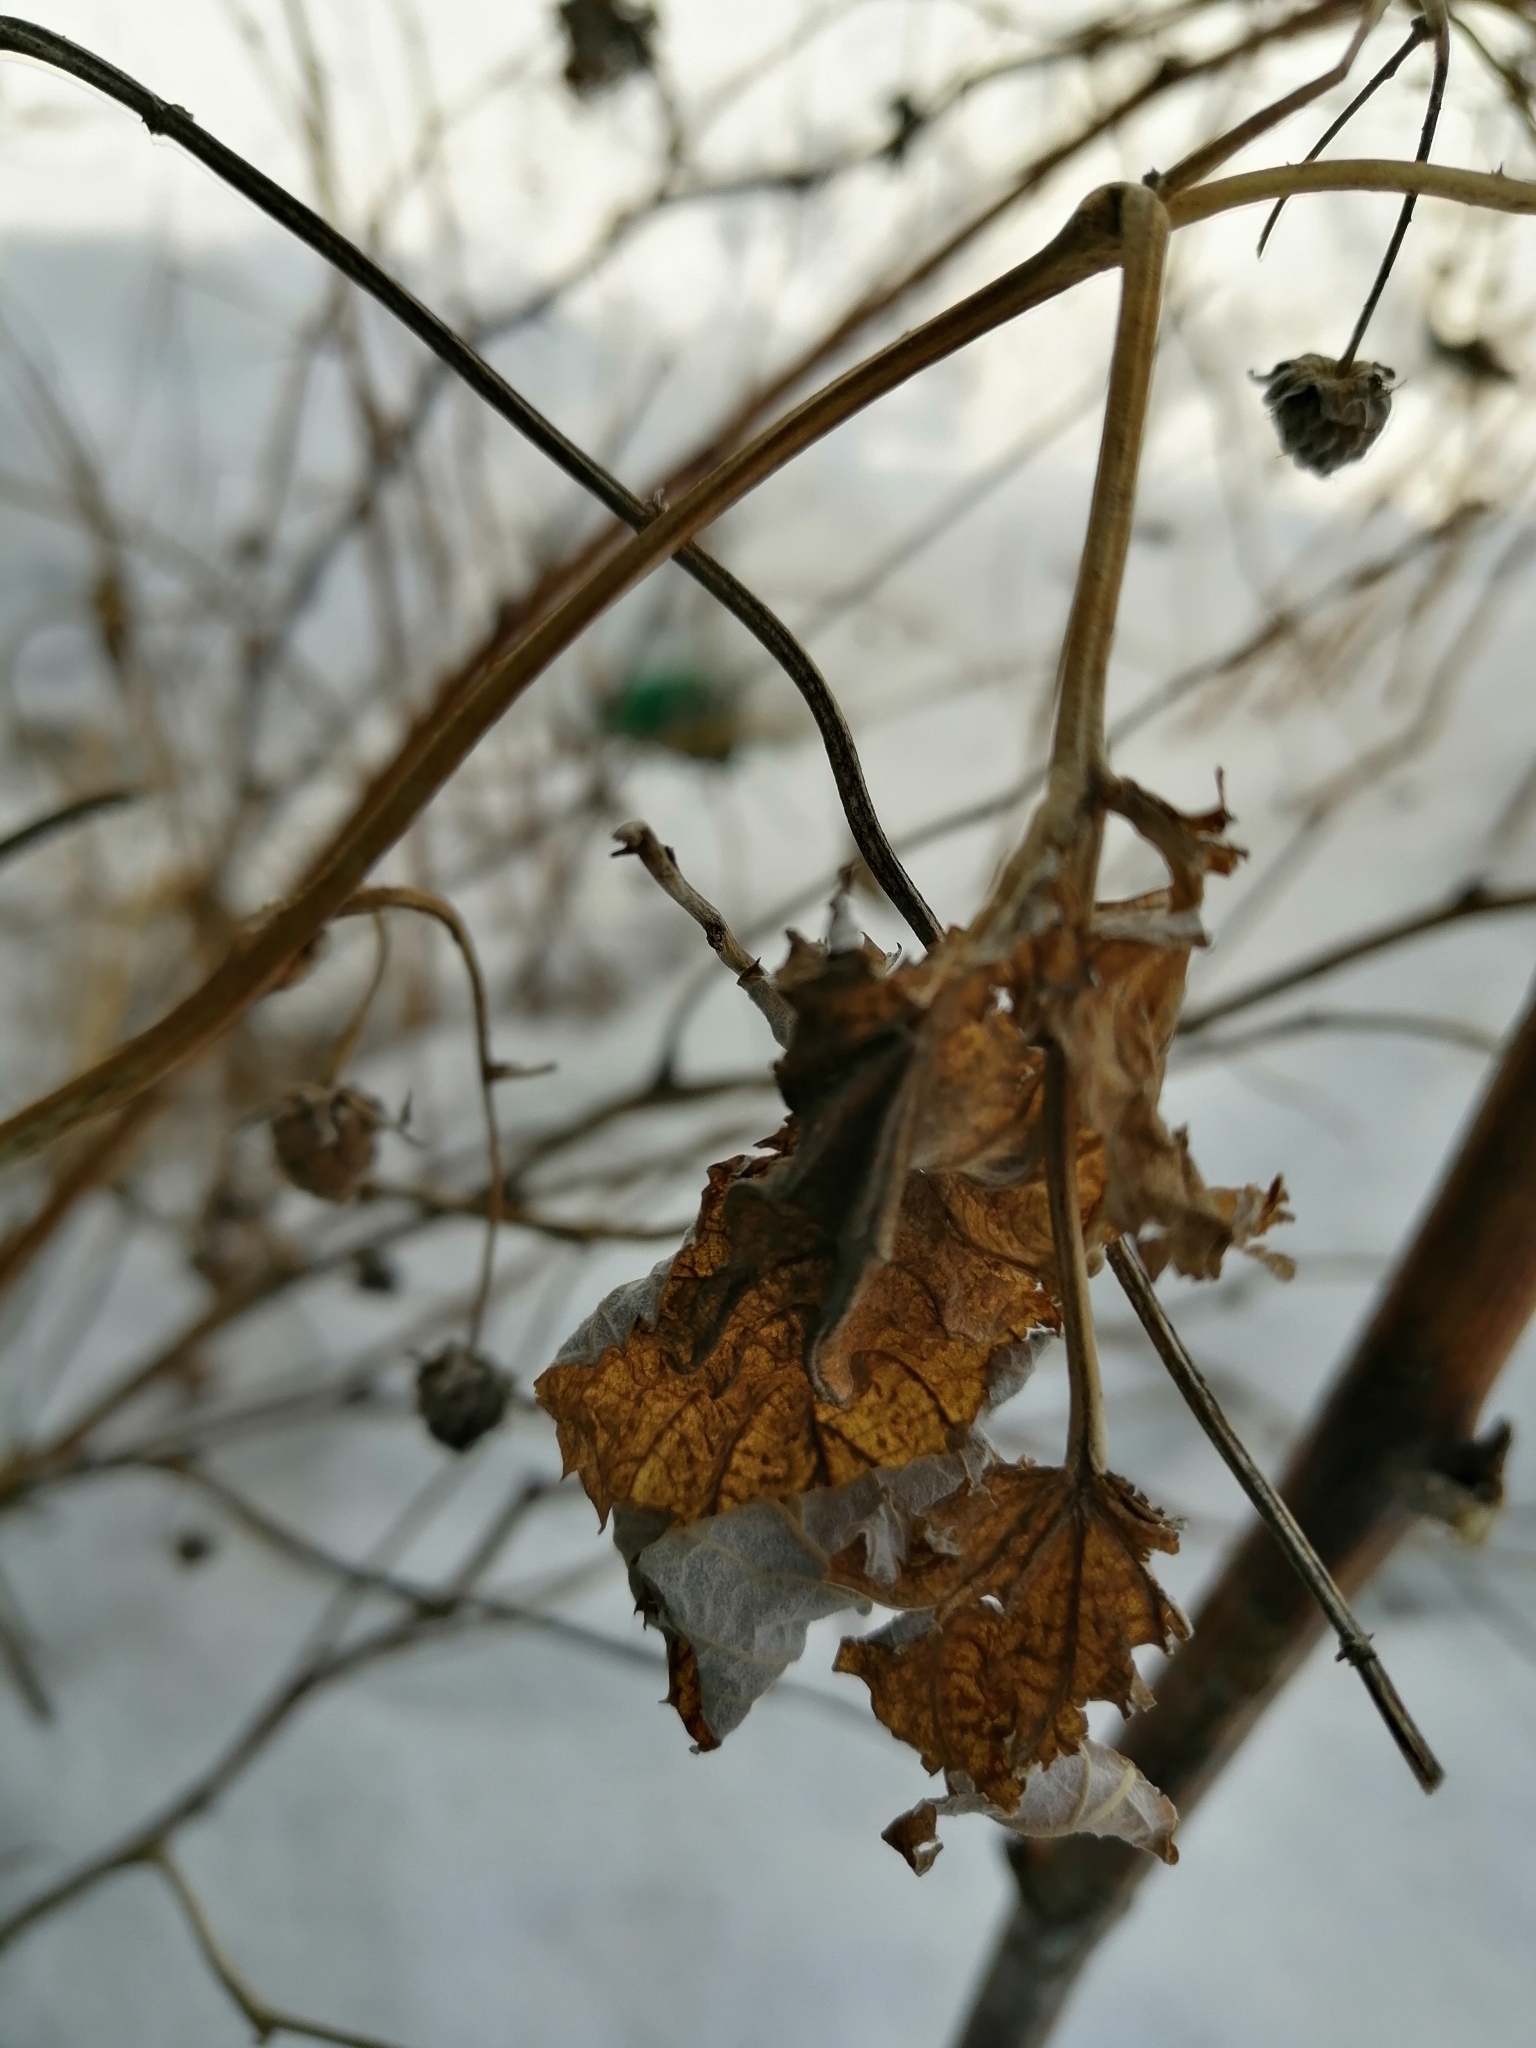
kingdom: Plantae
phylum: Tracheophyta
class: Magnoliopsida
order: Rosales
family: Rosaceae
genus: Rubus
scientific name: Rubus idaeus
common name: Raspberry
